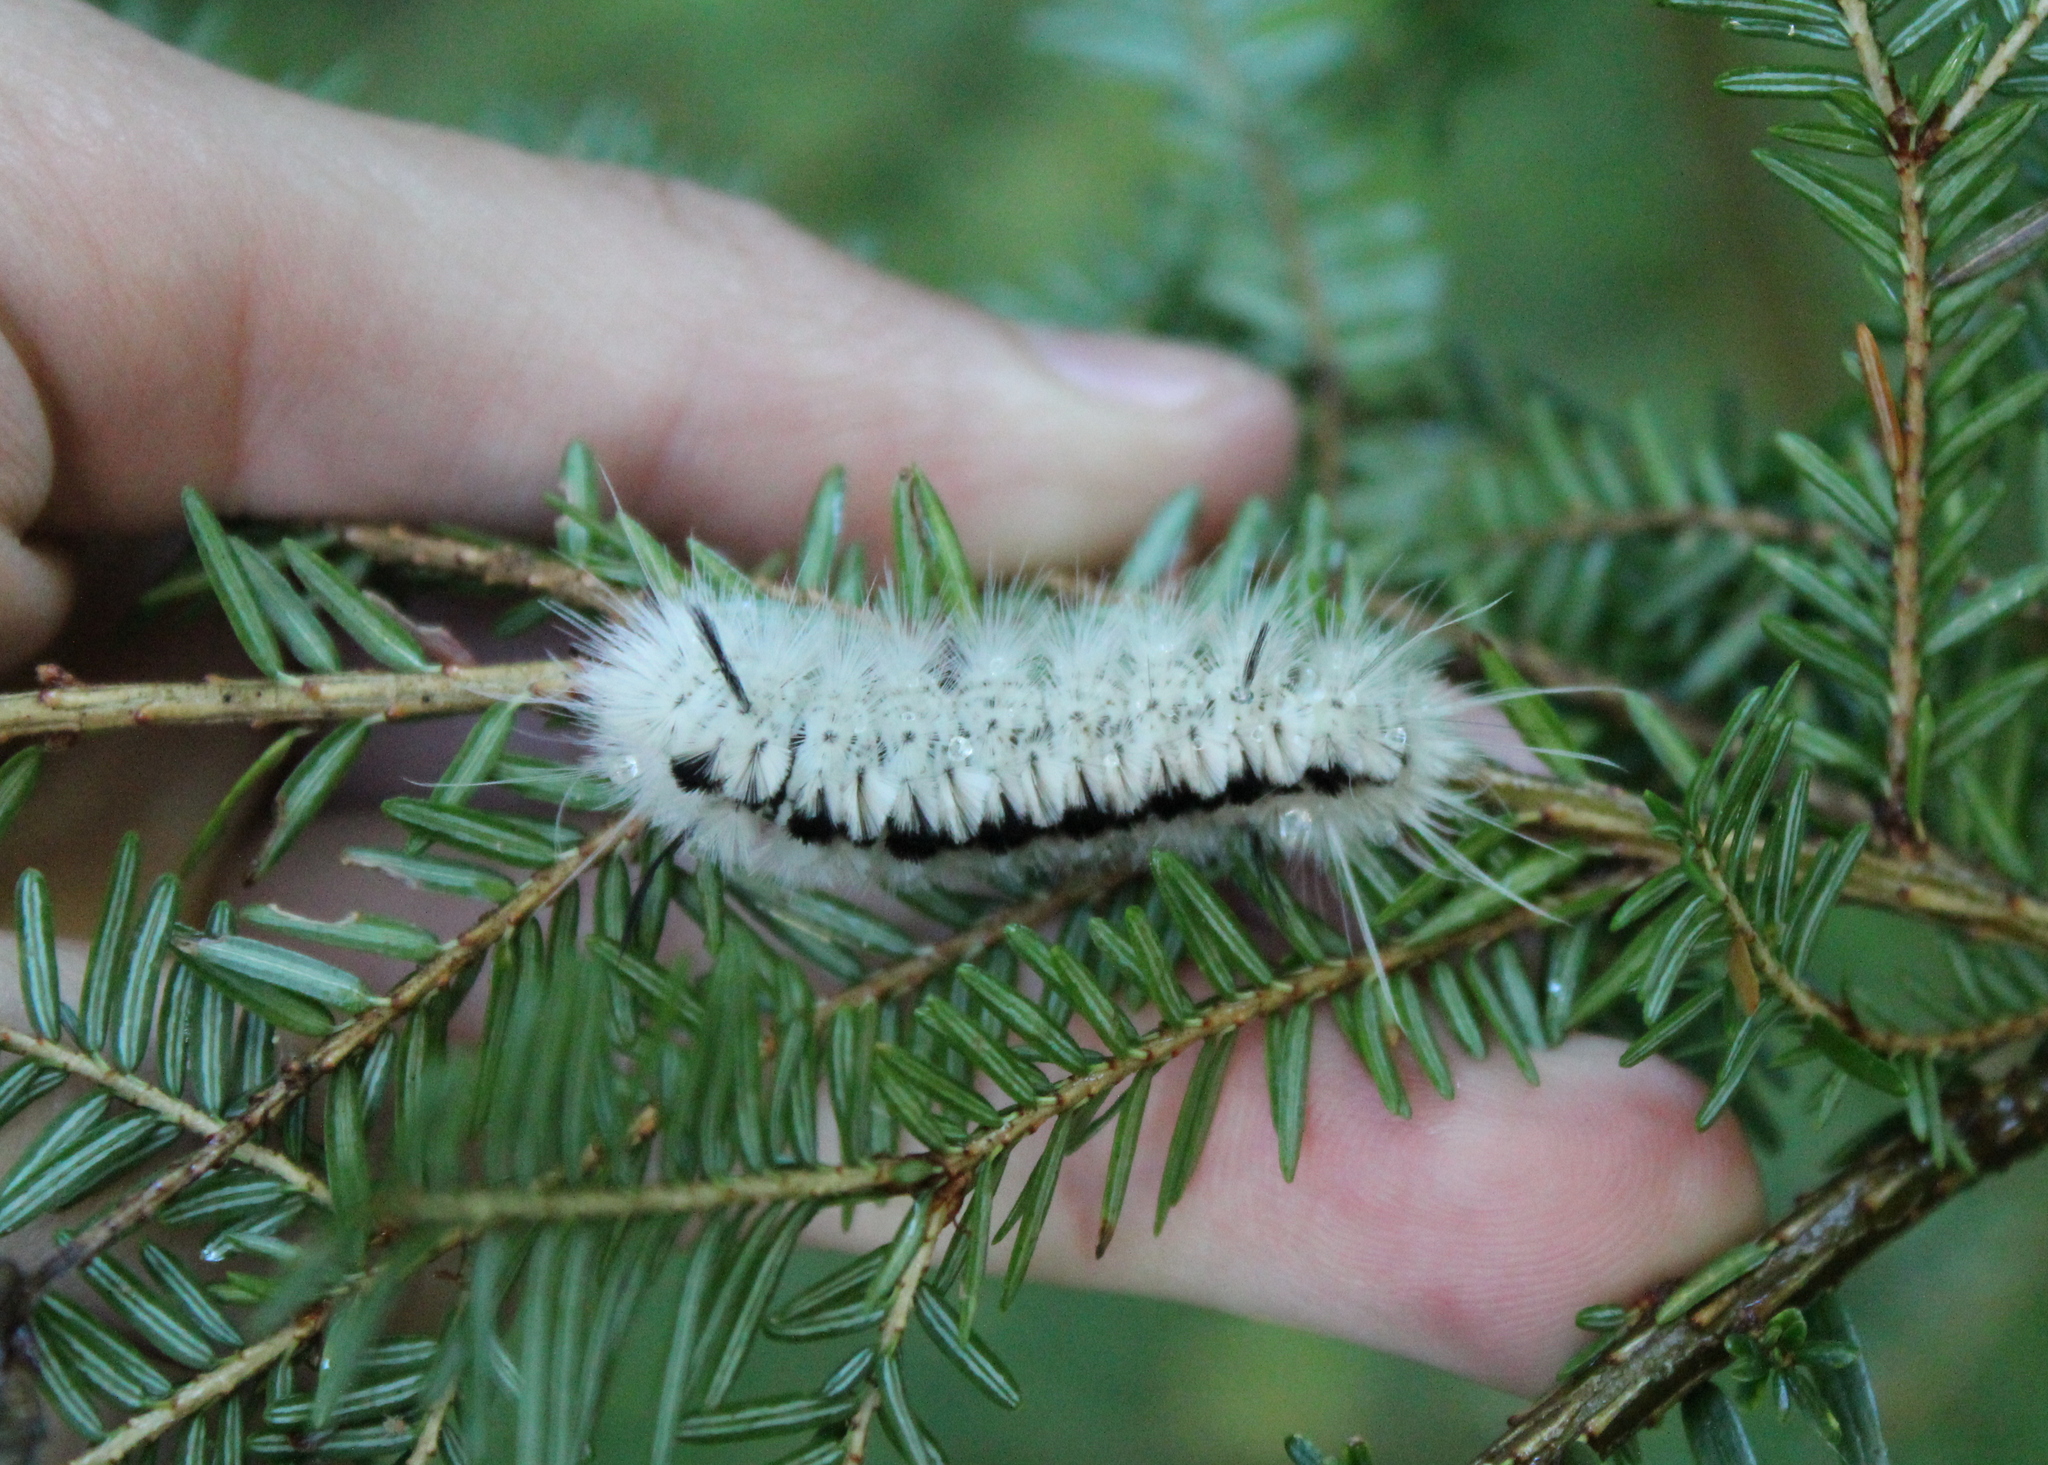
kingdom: Animalia
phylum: Arthropoda
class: Insecta
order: Lepidoptera
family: Erebidae
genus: Lophocampa
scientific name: Lophocampa caryae
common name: Hickory tussock moth
